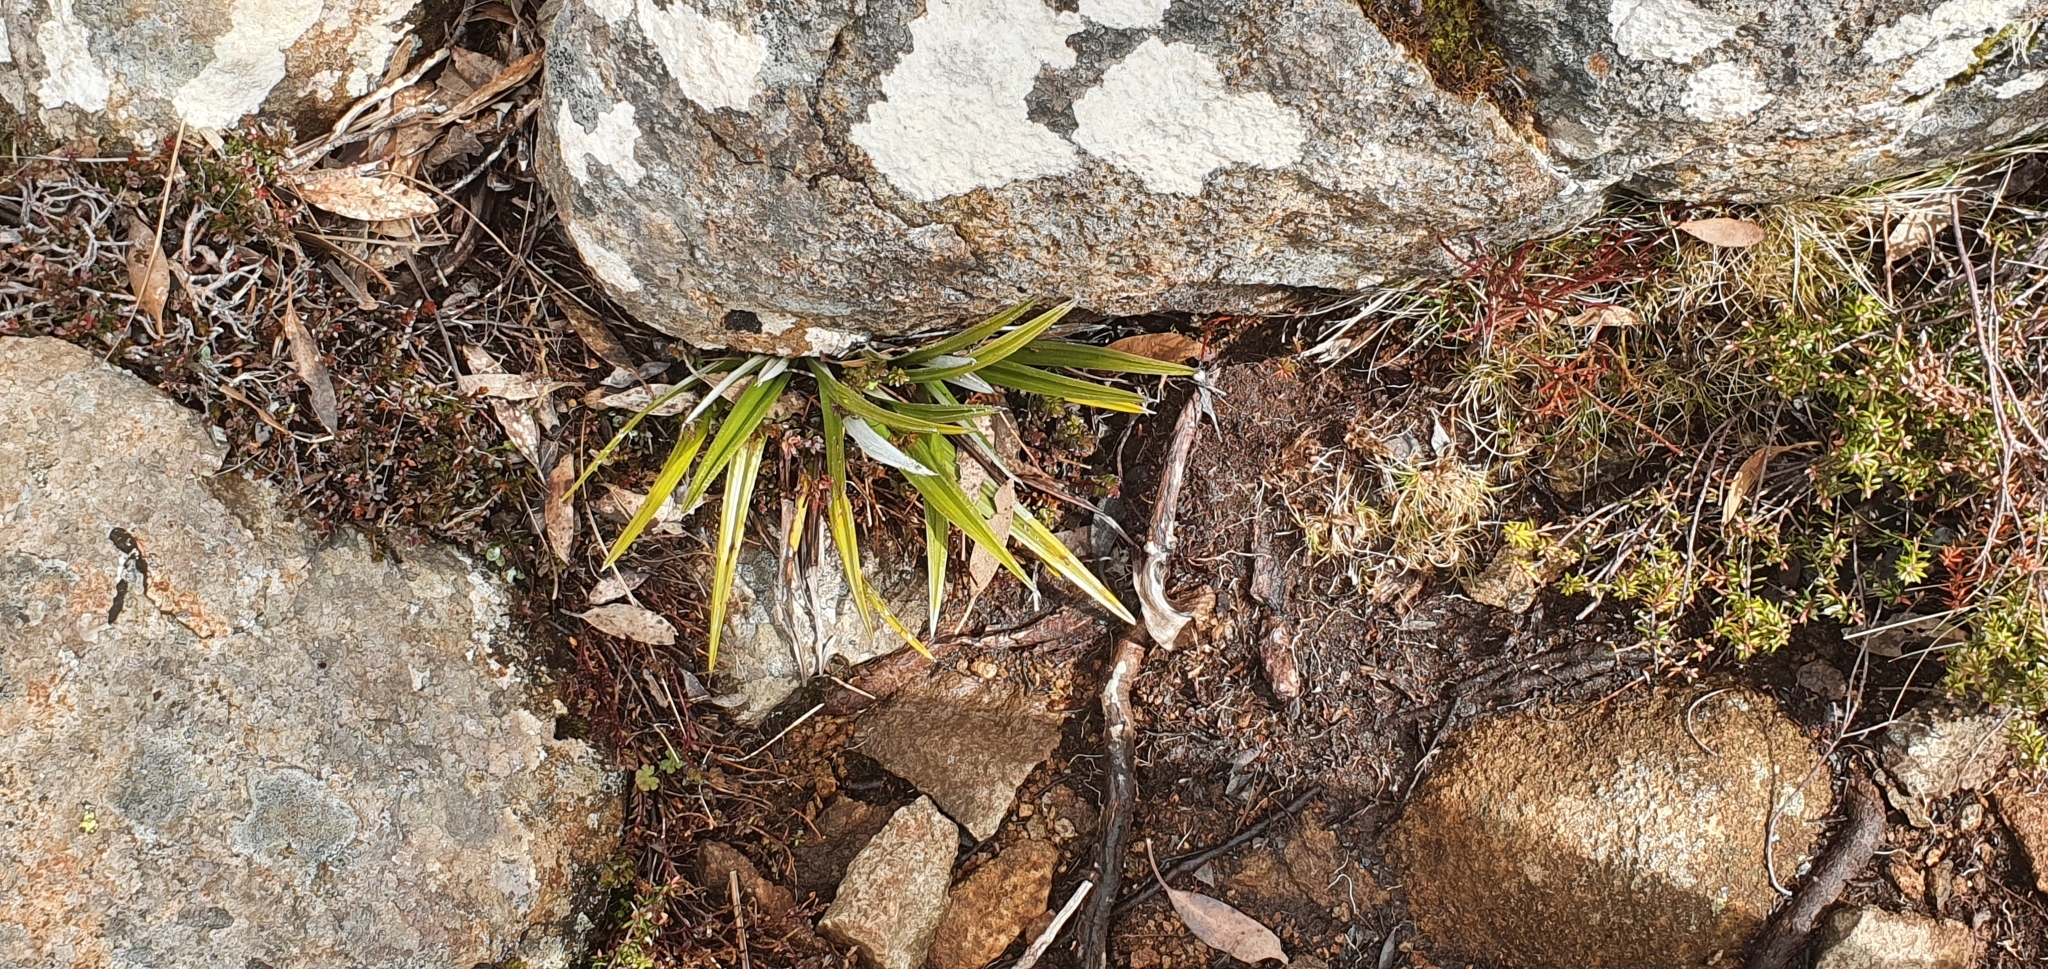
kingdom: Plantae
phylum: Tracheophyta
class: Liliopsida
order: Asparagales
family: Asteliaceae
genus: Astelia
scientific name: Astelia alpina
